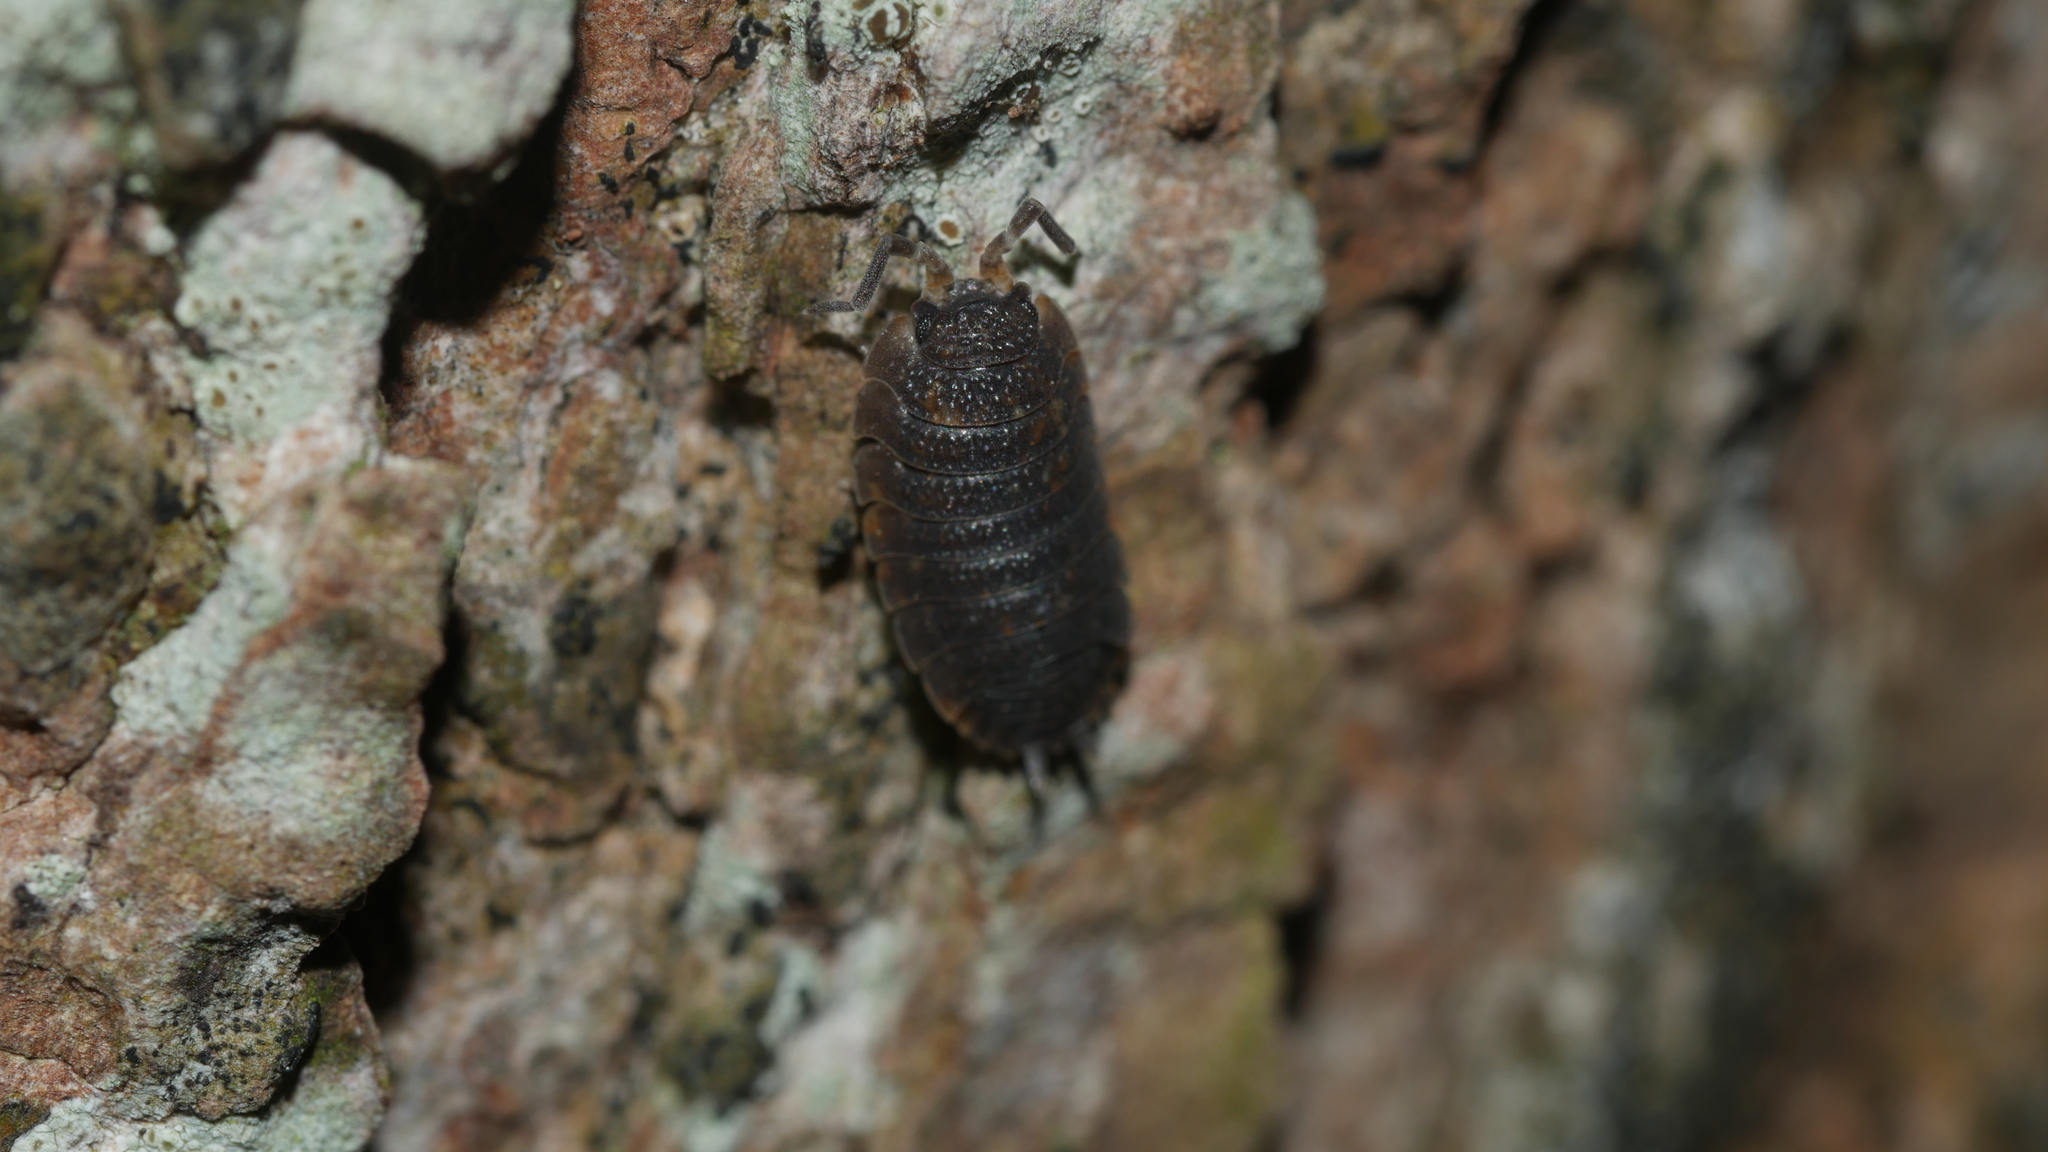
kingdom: Animalia
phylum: Arthropoda
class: Malacostraca
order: Isopoda
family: Porcellionidae
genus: Porcellio
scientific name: Porcellio scaber
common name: Common rough woodlouse
